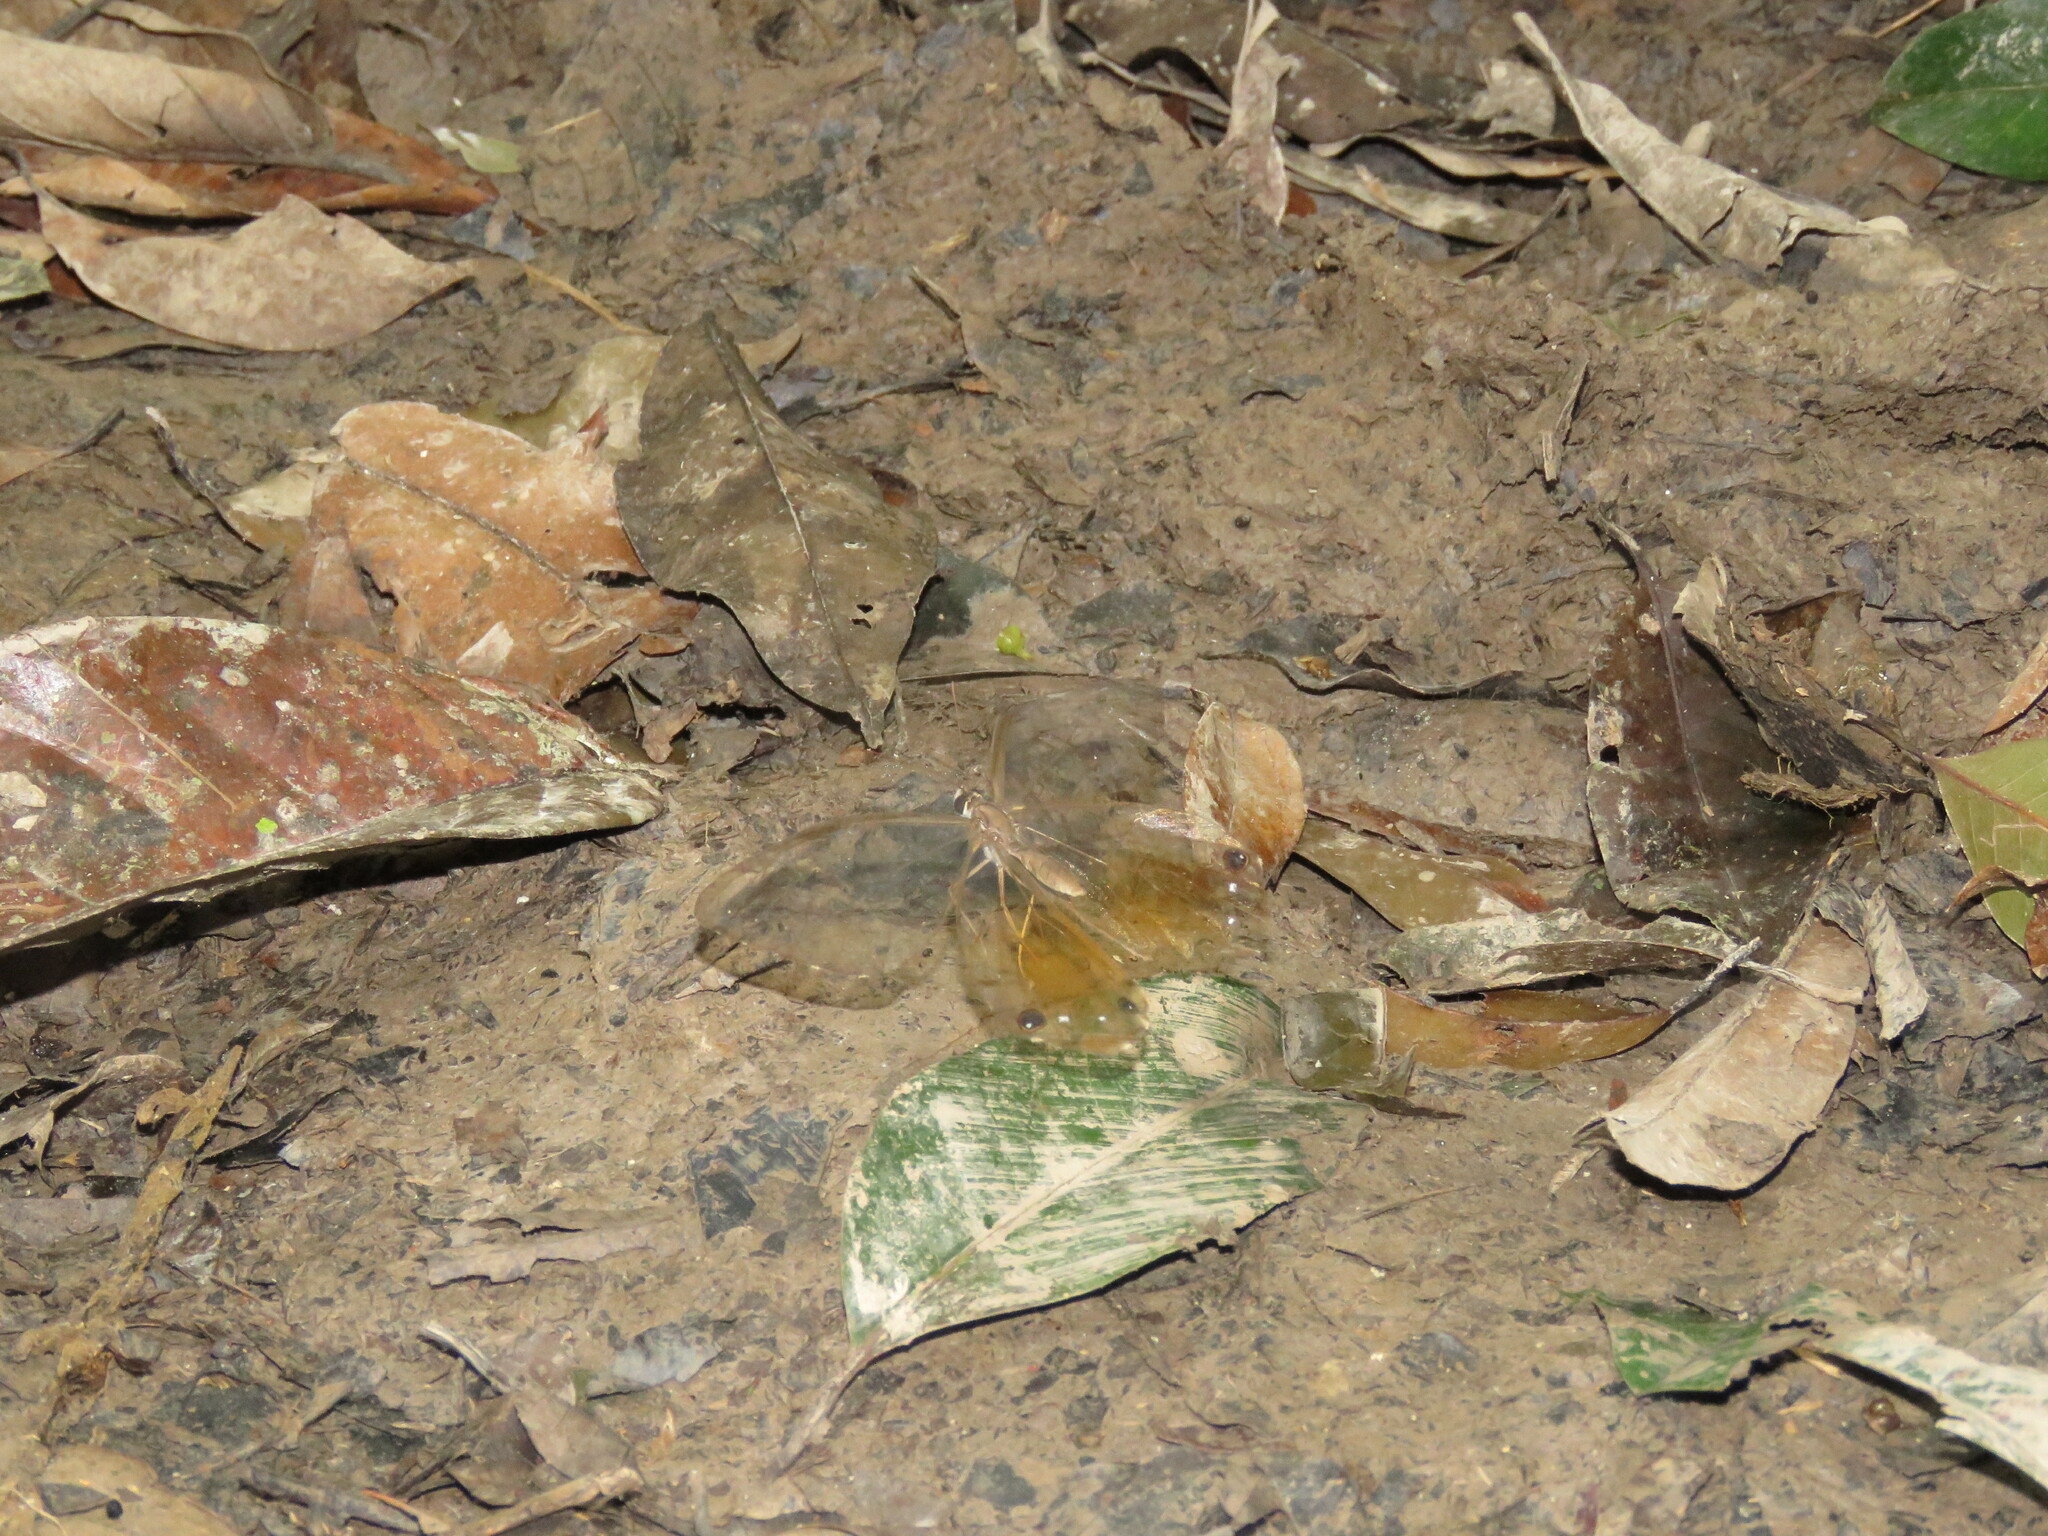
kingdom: Animalia
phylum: Arthropoda
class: Insecta
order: Lepidoptera
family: Nymphalidae
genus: Haetera
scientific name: Haetera piera
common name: Amber phantom
